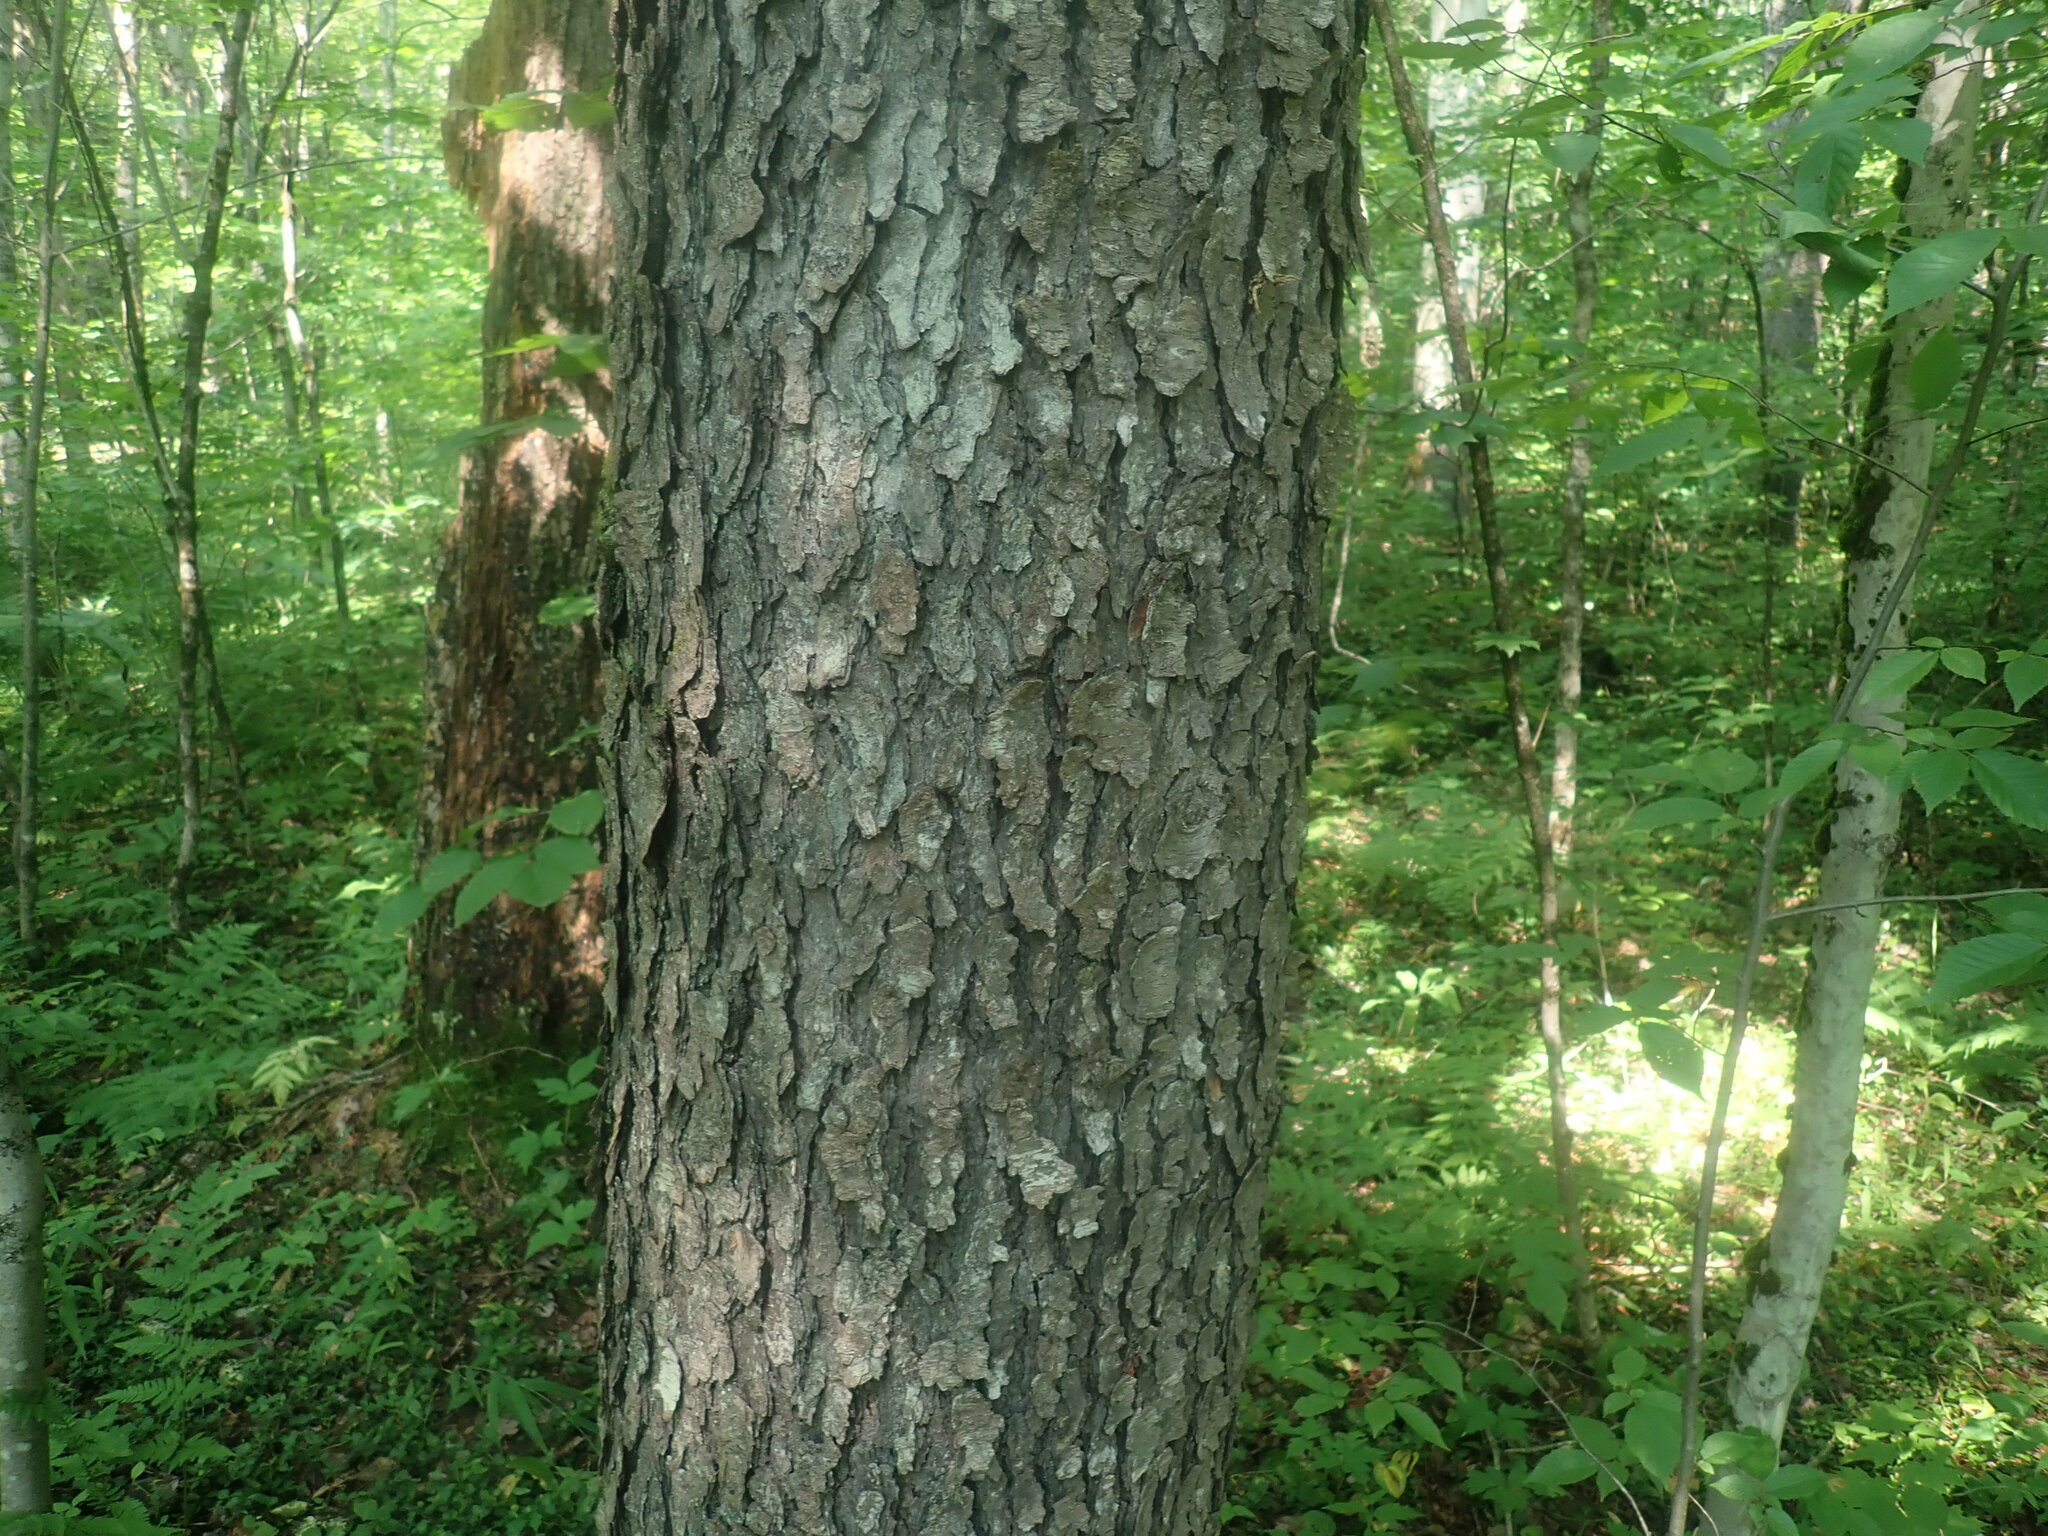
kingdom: Plantae
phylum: Tracheophyta
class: Magnoliopsida
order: Rosales
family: Rosaceae
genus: Prunus
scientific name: Prunus serotina
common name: Black cherry
